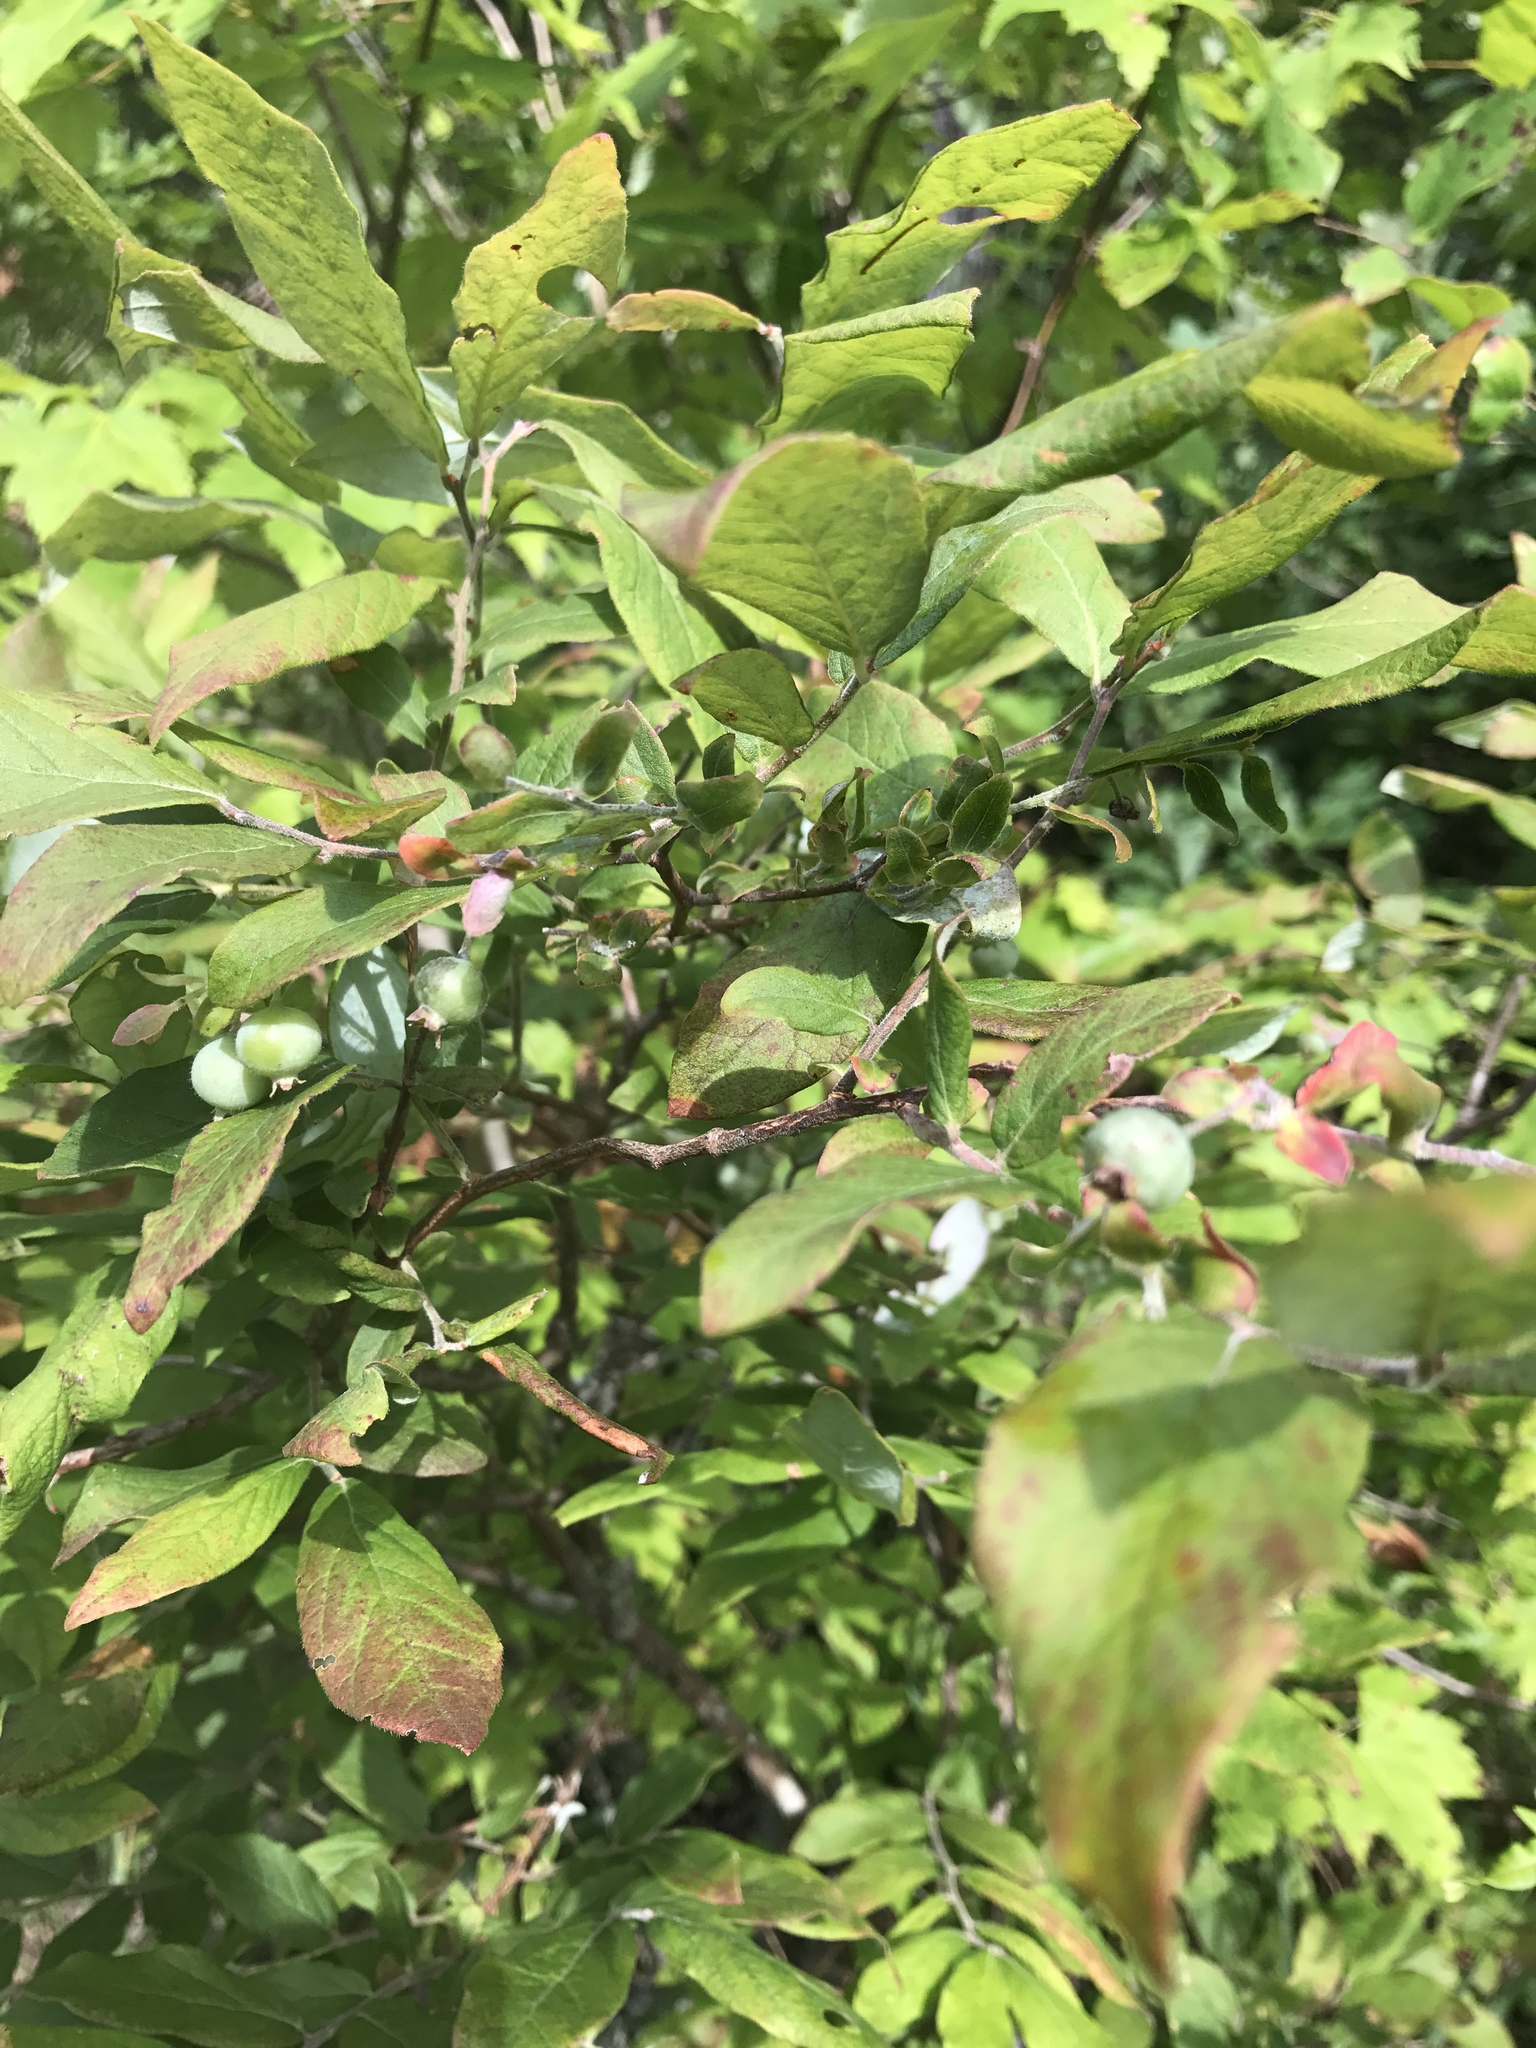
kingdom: Plantae
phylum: Tracheophyta
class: Magnoliopsida
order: Ericales
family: Ericaceae
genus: Vaccinium
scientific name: Vaccinium stamineum
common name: Deerberry
